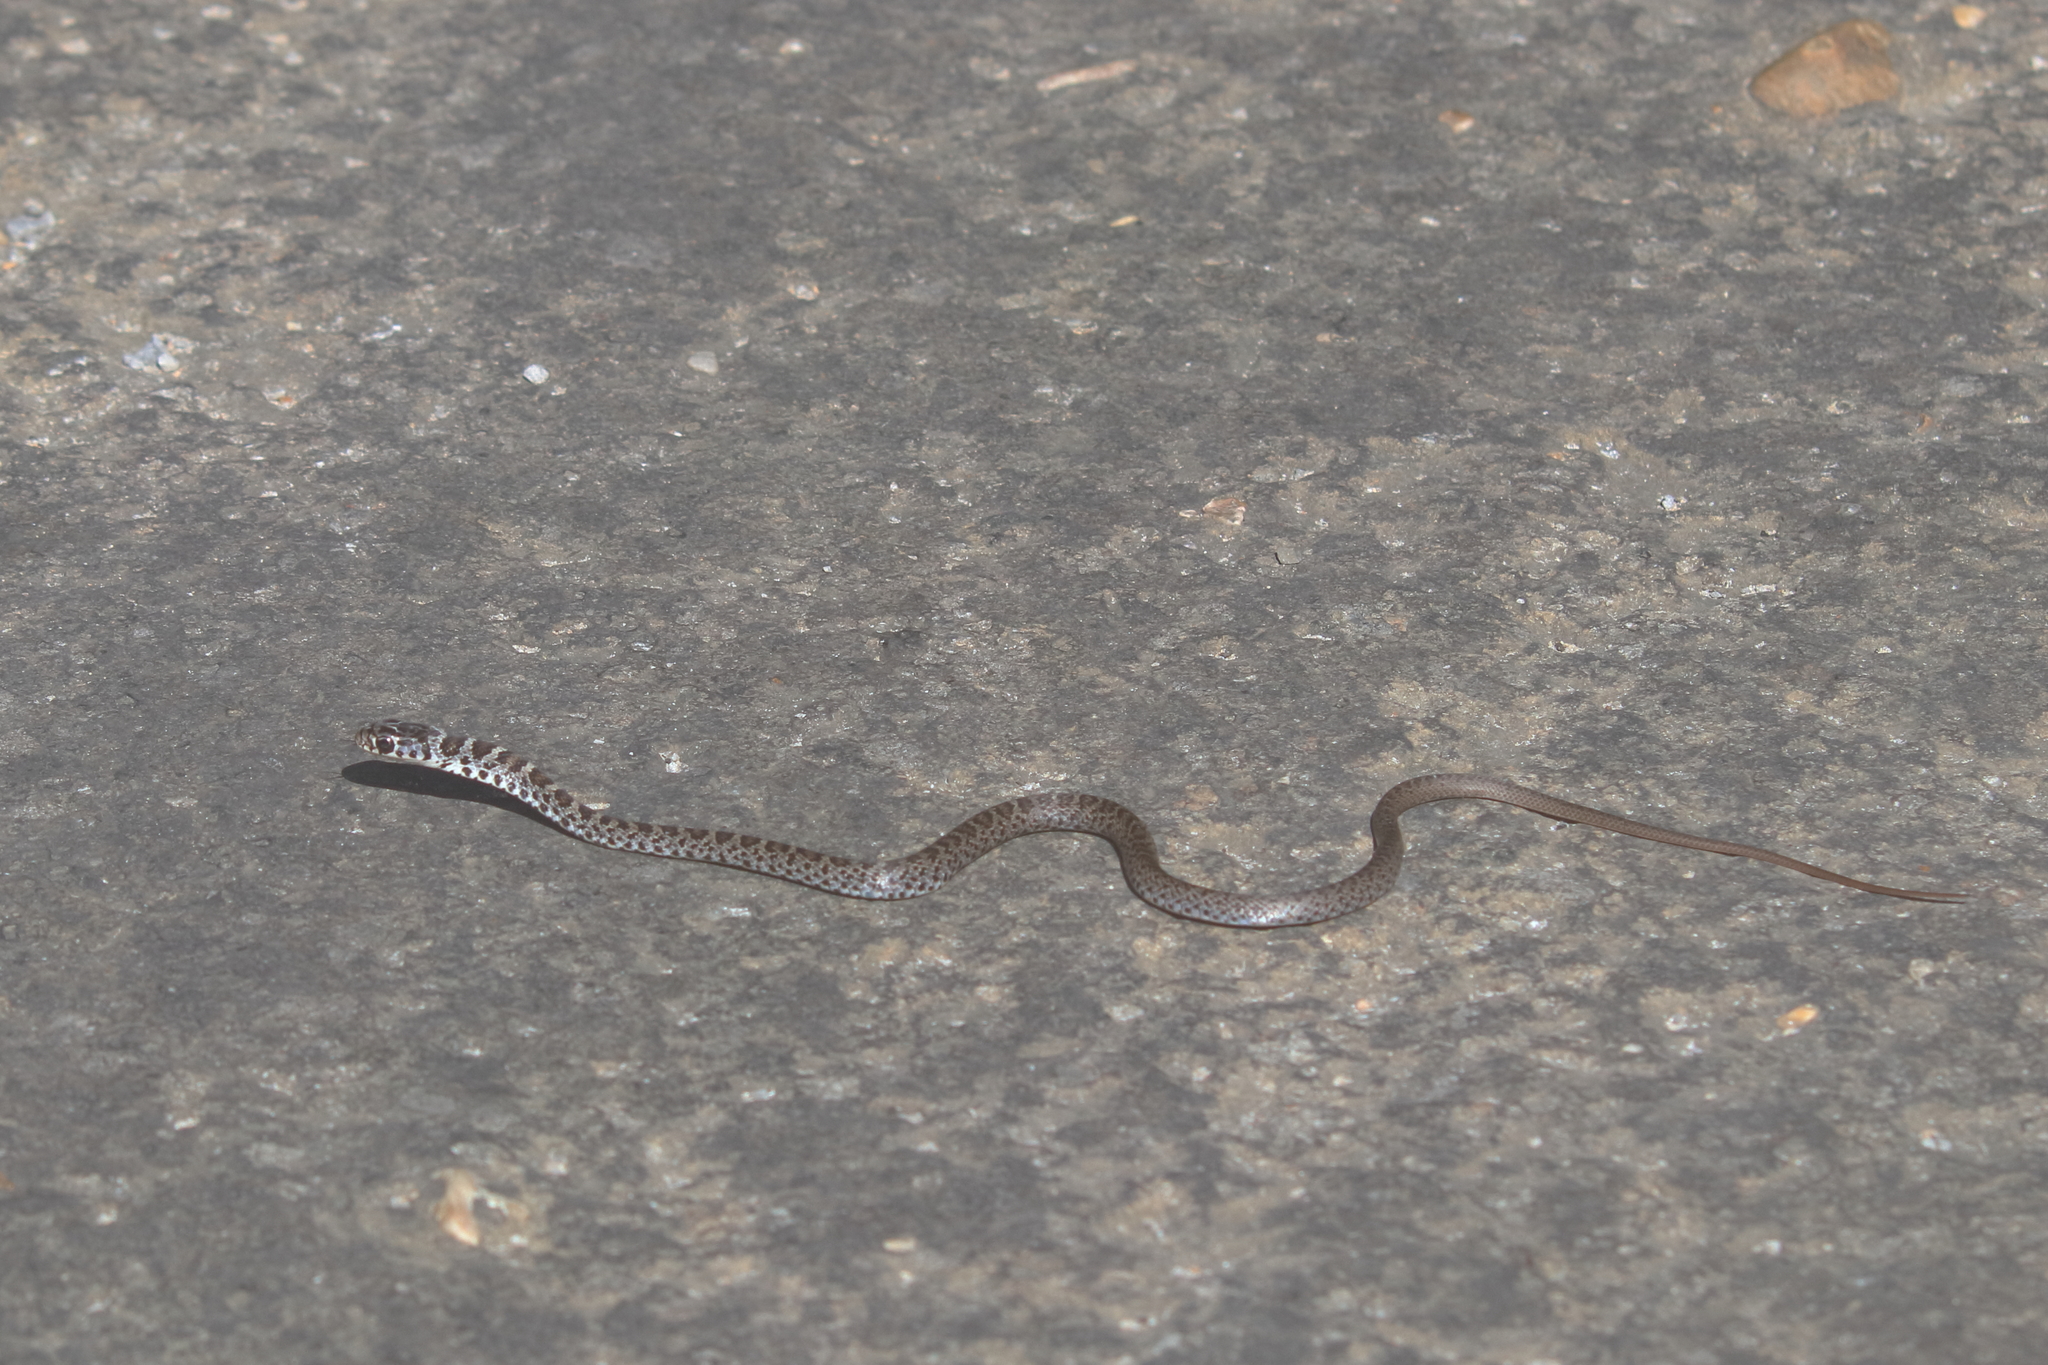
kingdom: Animalia
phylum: Chordata
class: Squamata
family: Colubridae
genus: Coluber
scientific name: Coluber constrictor
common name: Eastern racer
